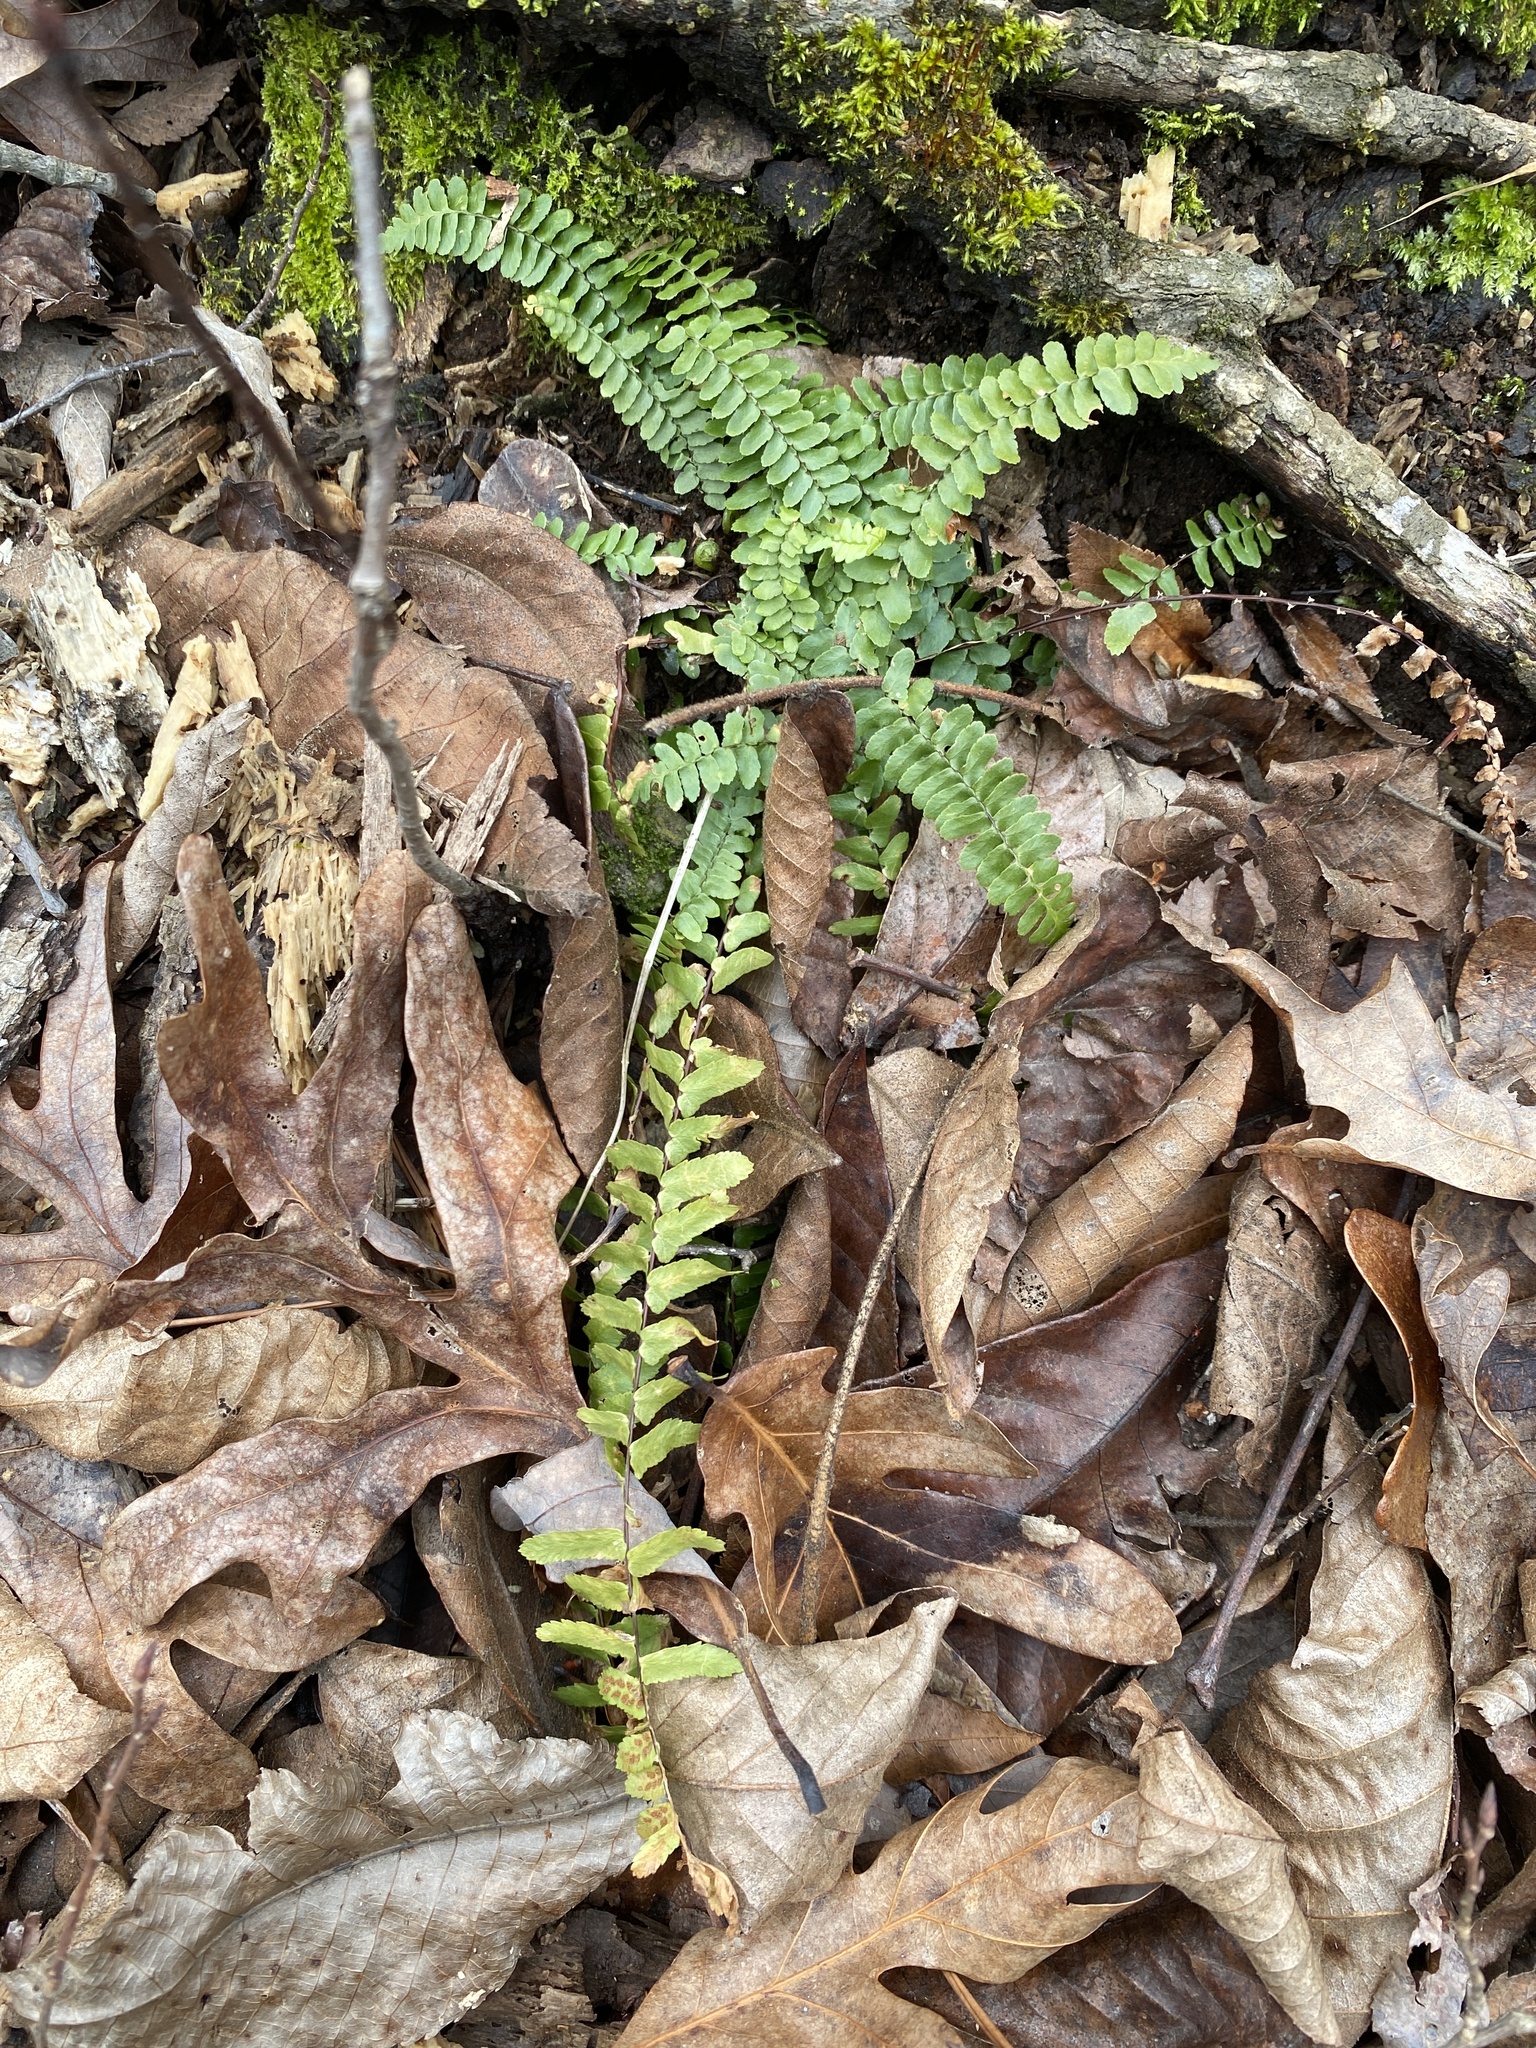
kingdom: Plantae
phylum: Tracheophyta
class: Polypodiopsida
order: Polypodiales
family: Aspleniaceae
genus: Asplenium
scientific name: Asplenium platyneuron
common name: Ebony spleenwort
